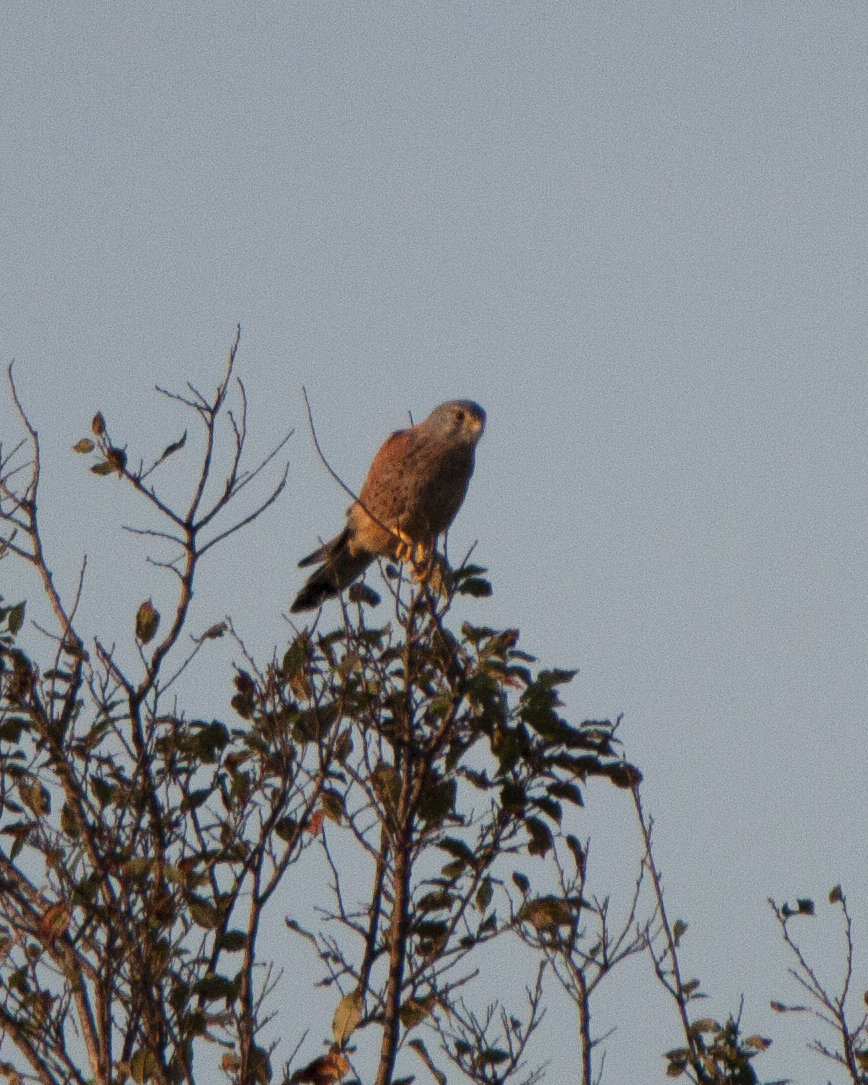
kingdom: Animalia
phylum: Chordata
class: Aves
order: Falconiformes
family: Falconidae
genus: Falco
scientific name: Falco tinnunculus
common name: Common kestrel
